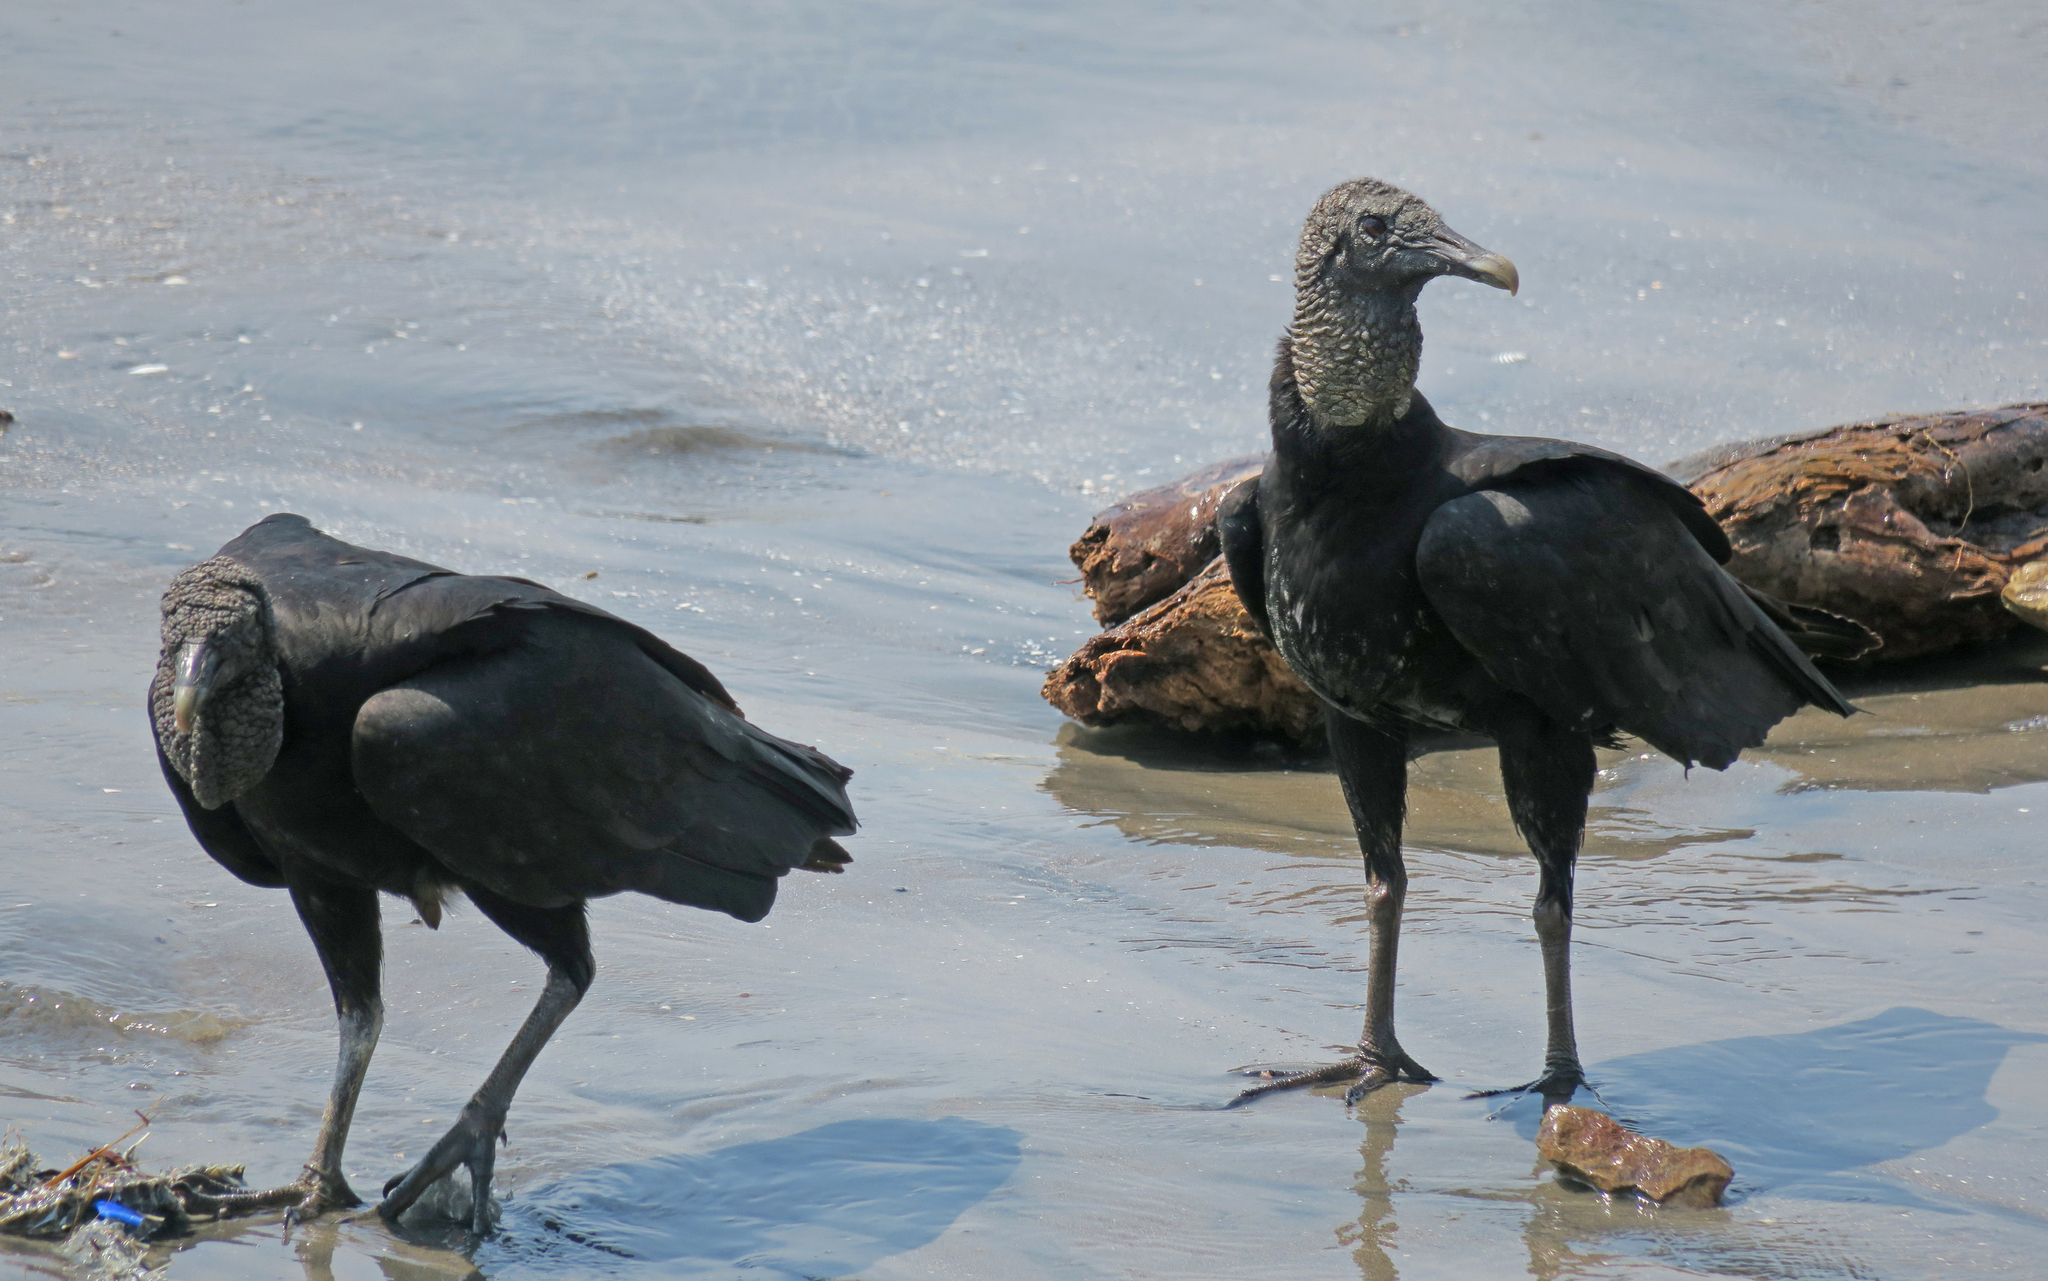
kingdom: Animalia
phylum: Chordata
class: Aves
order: Accipitriformes
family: Cathartidae
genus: Coragyps
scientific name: Coragyps atratus
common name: Black vulture
